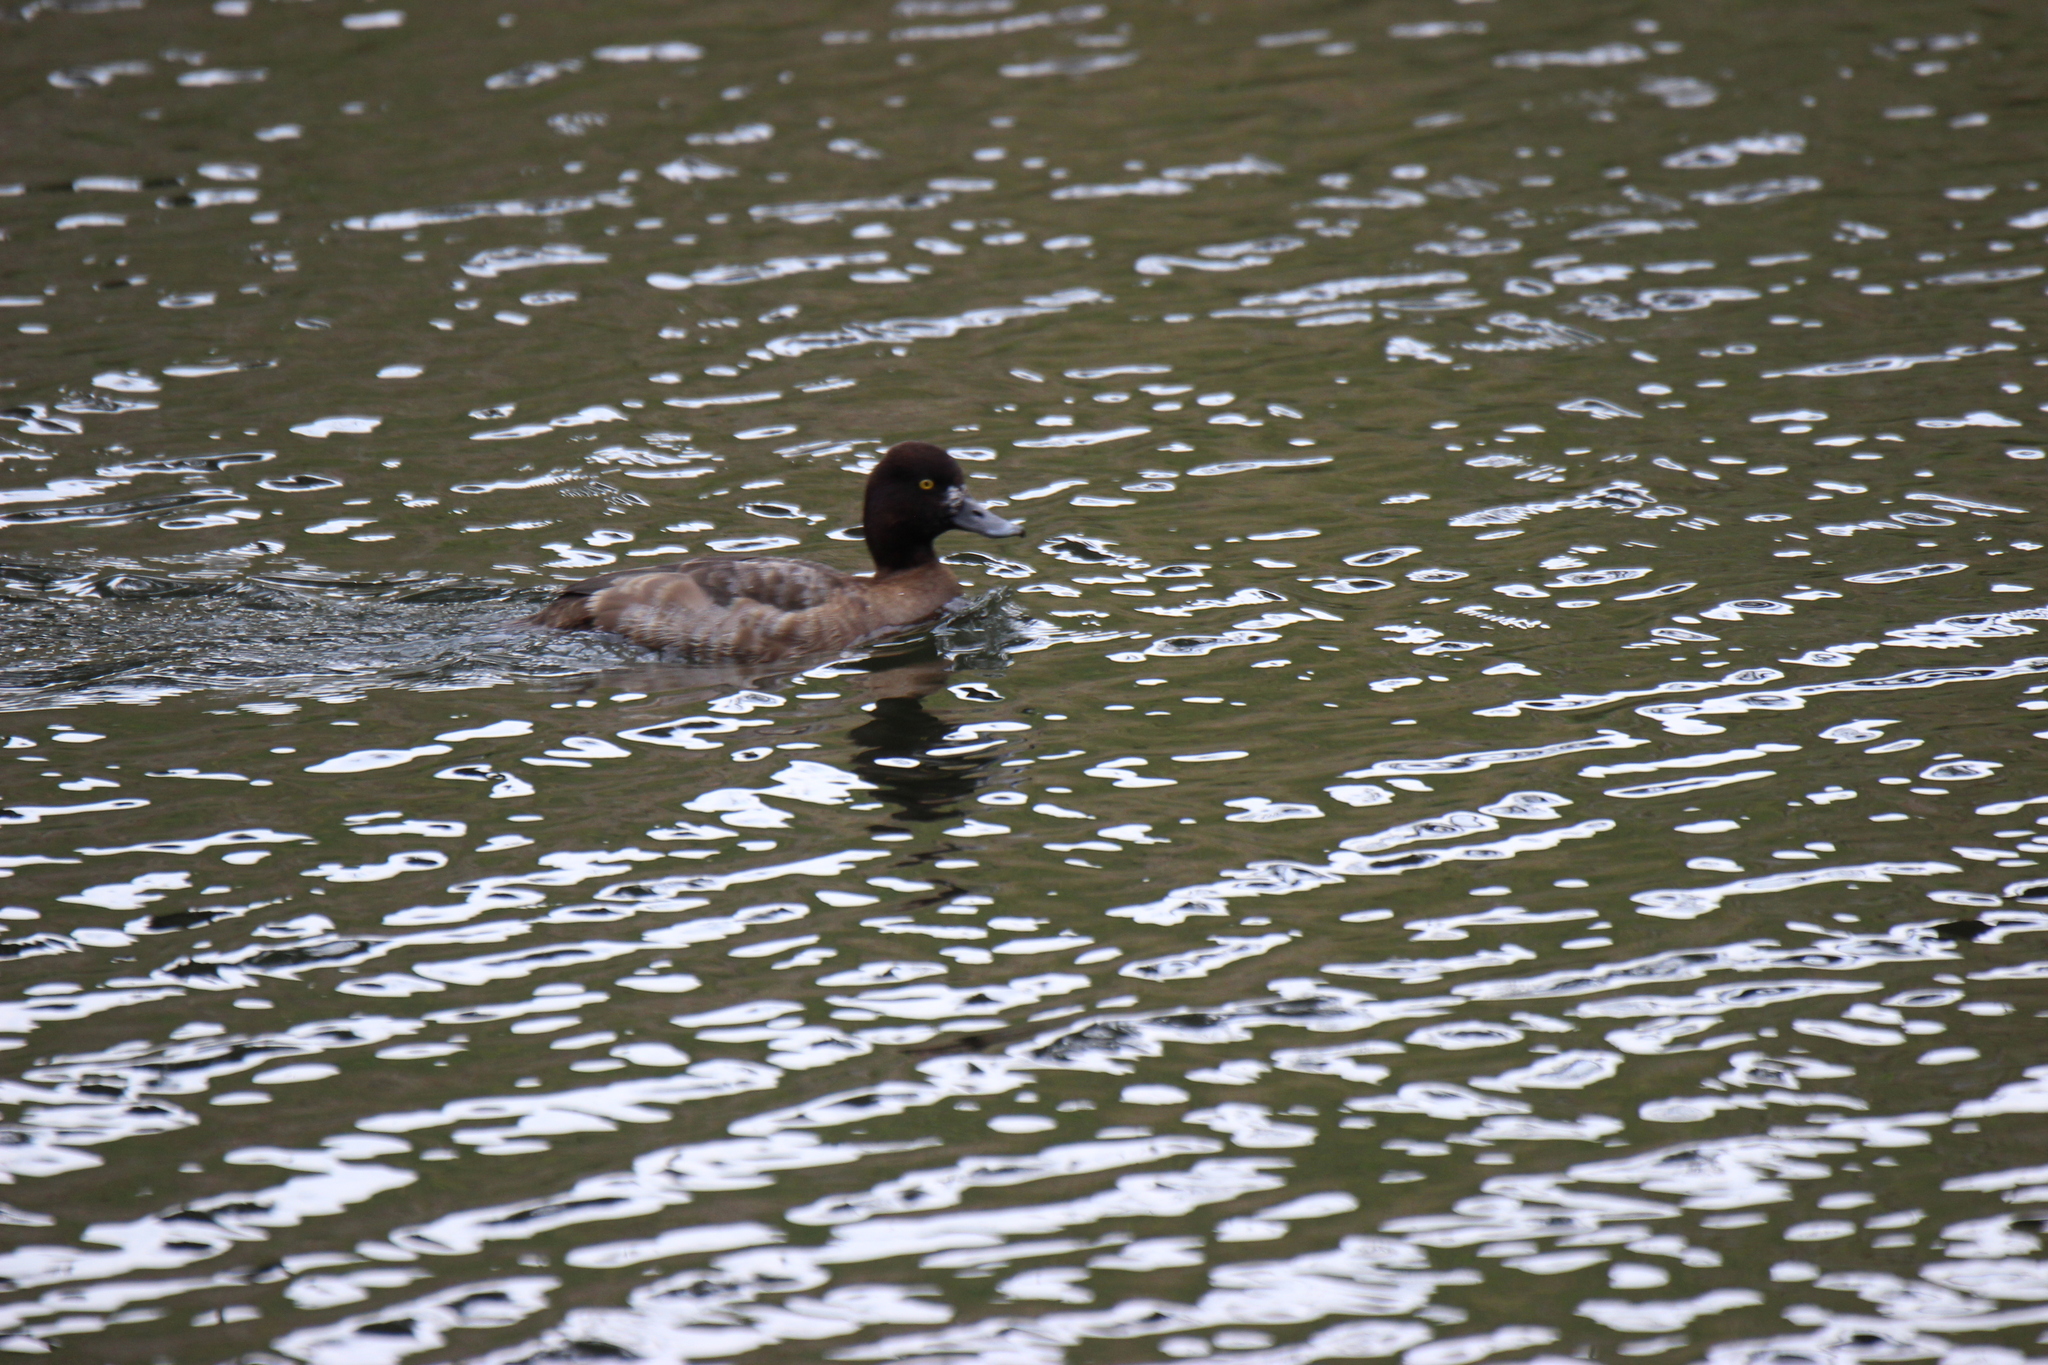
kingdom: Animalia
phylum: Chordata
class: Aves
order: Anseriformes
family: Anatidae
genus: Aythya
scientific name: Aythya affinis
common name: Lesser scaup
